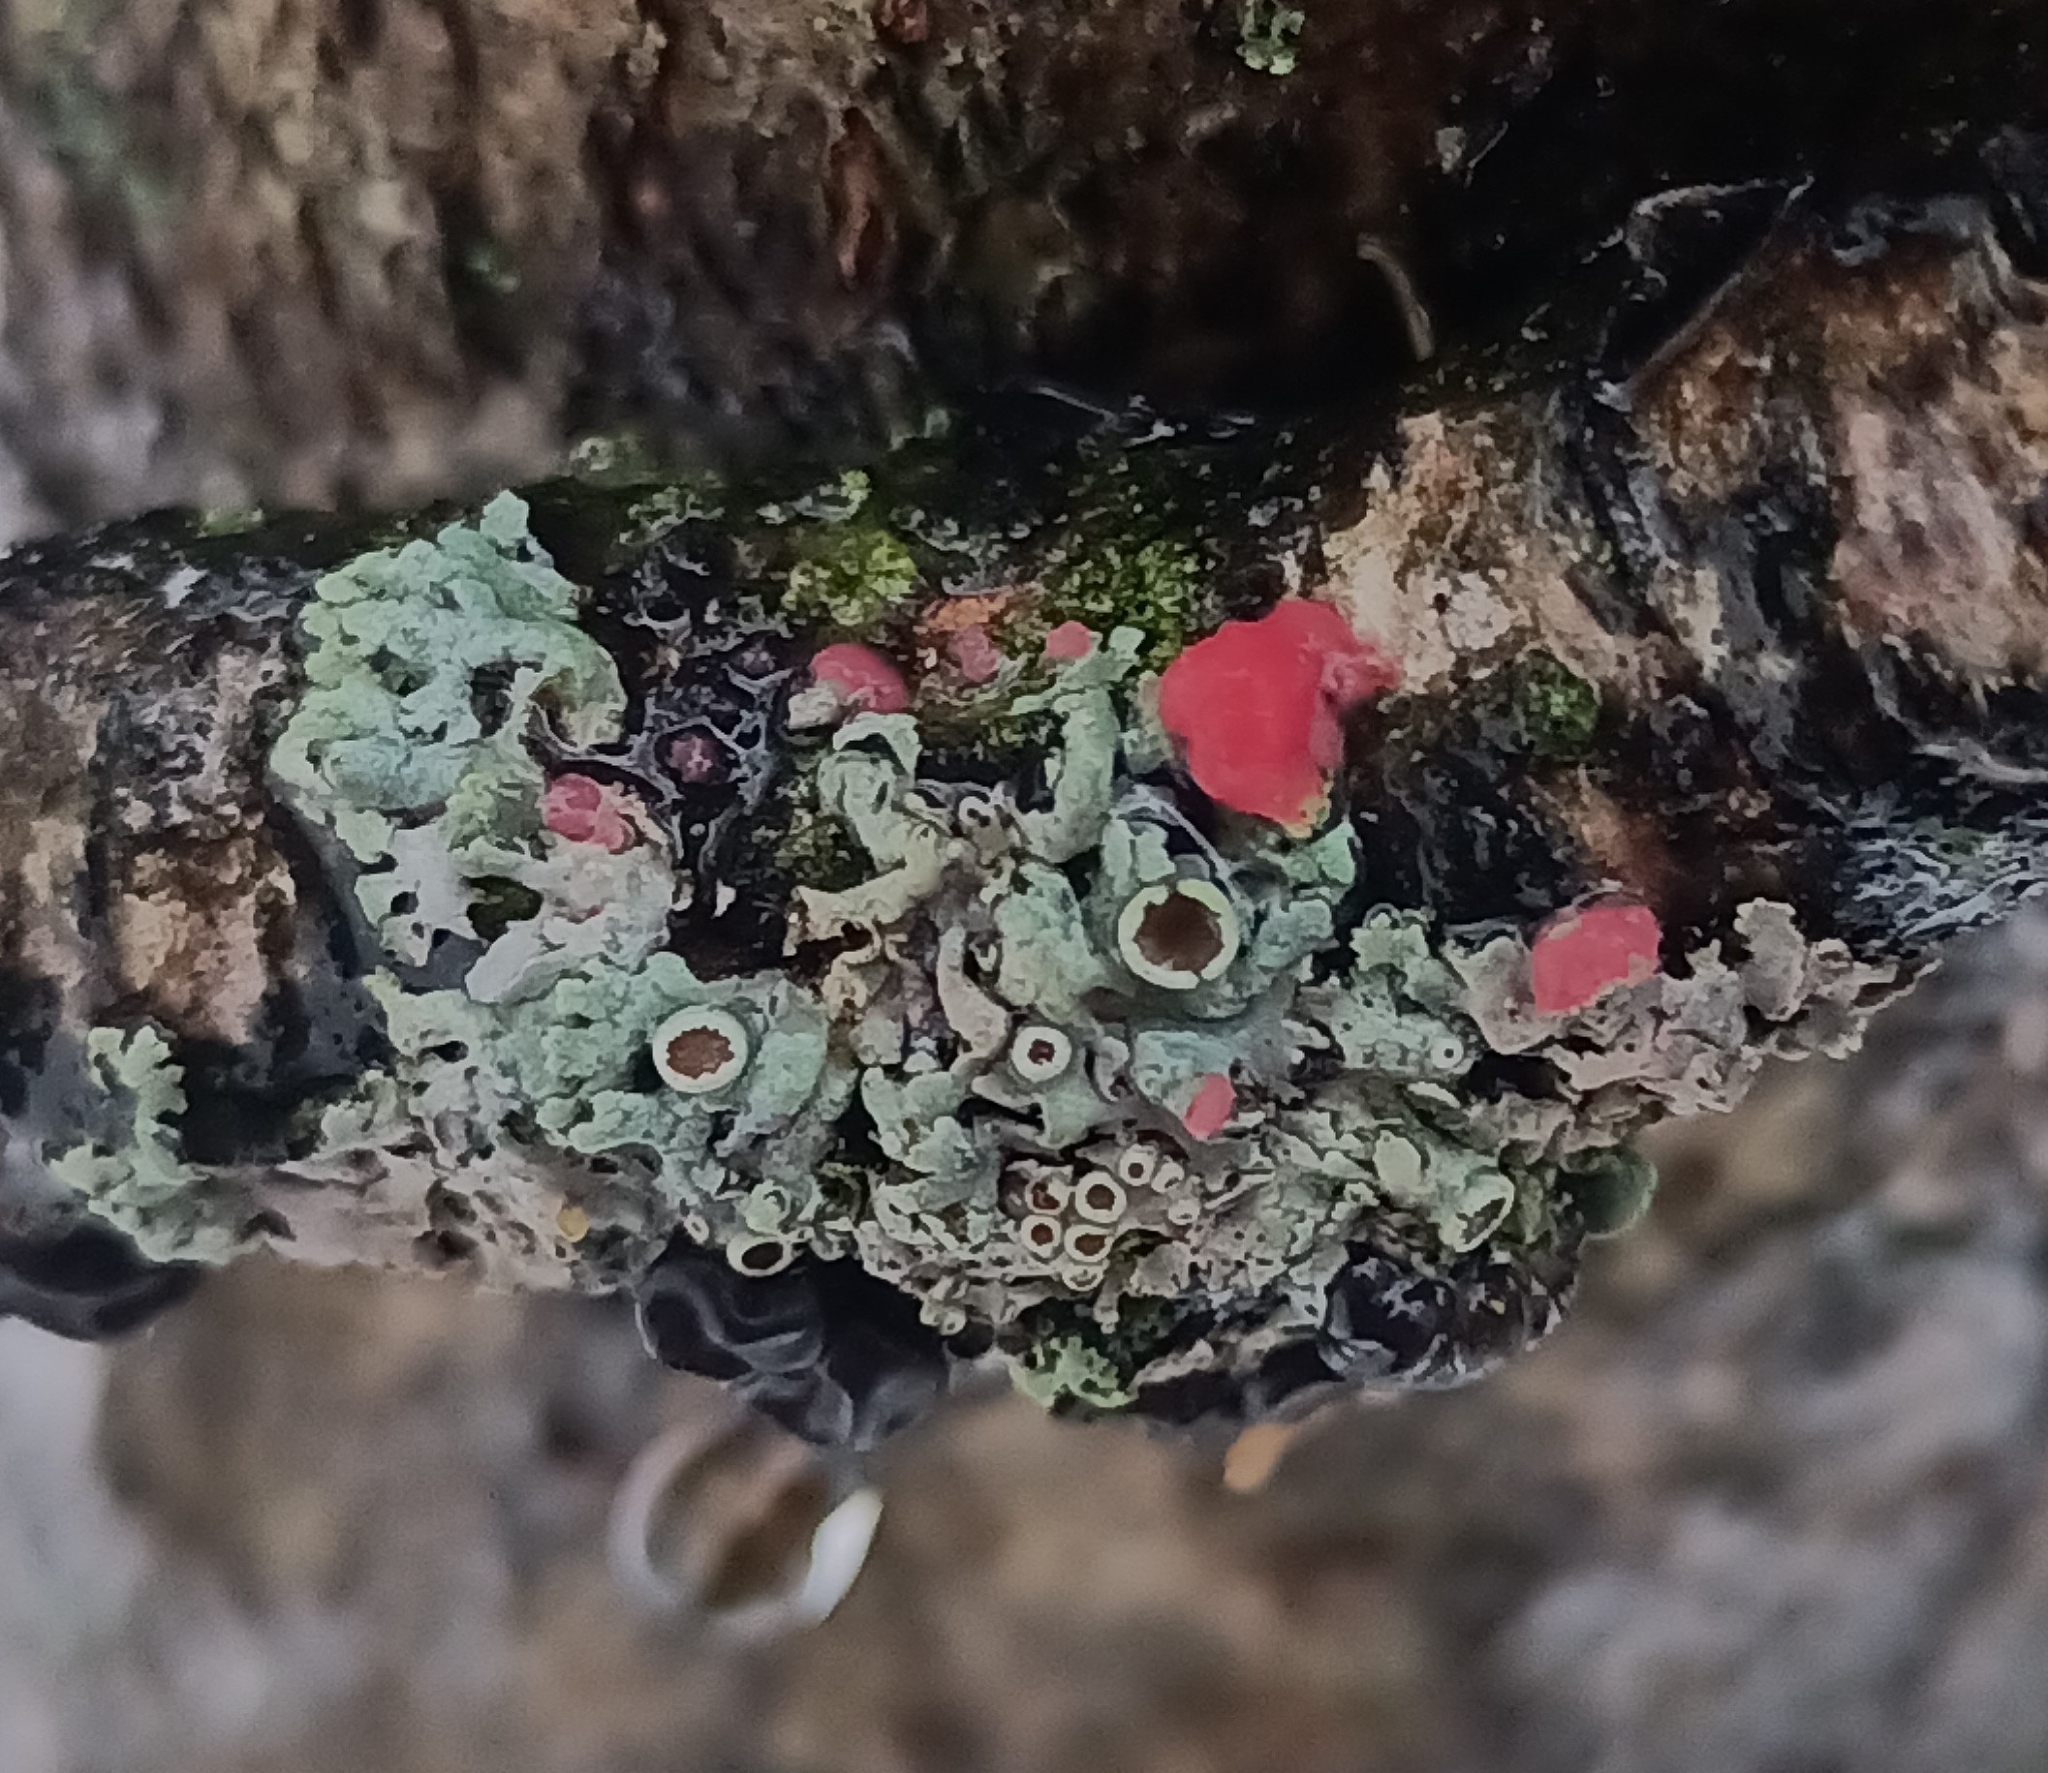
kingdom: Fungi
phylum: Ascomycota
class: Sordariomycetes
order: Hypocreales
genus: Illosporiopsis
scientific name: Illosporiopsis christiansenii
